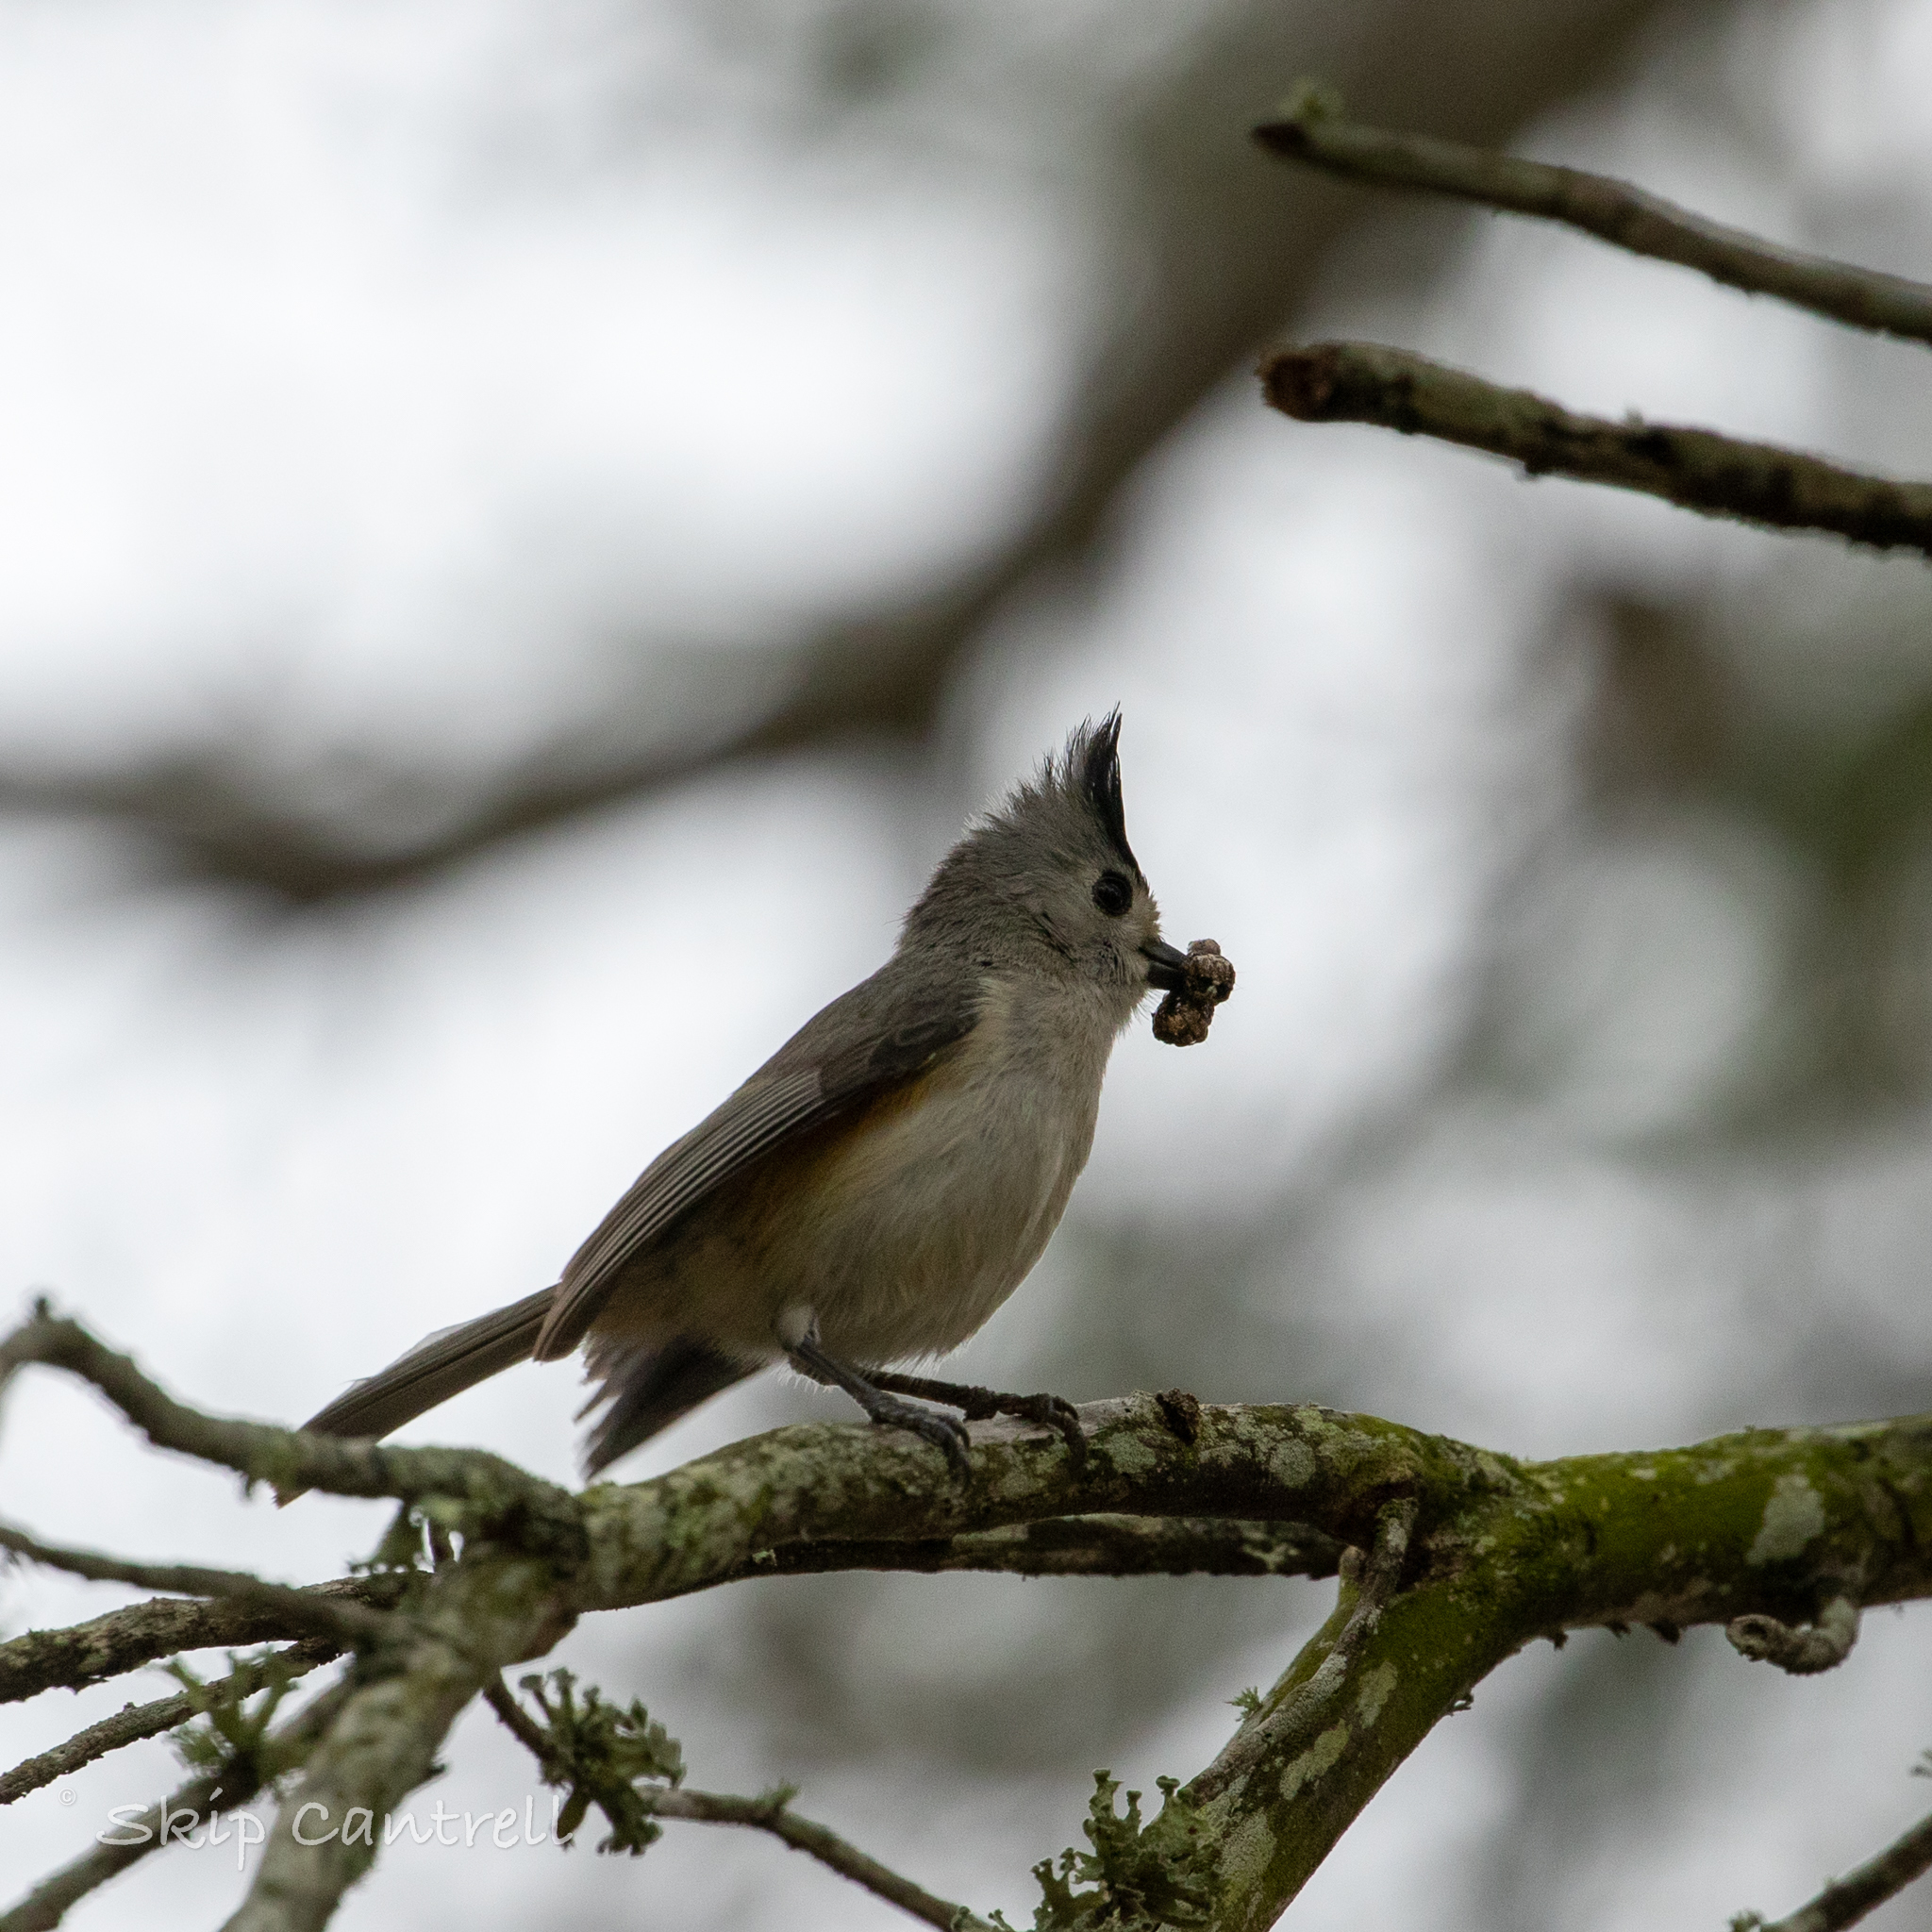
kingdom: Animalia
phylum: Chordata
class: Aves
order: Passeriformes
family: Paridae
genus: Baeolophus
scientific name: Baeolophus atricristatus
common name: Black-crested titmouse
